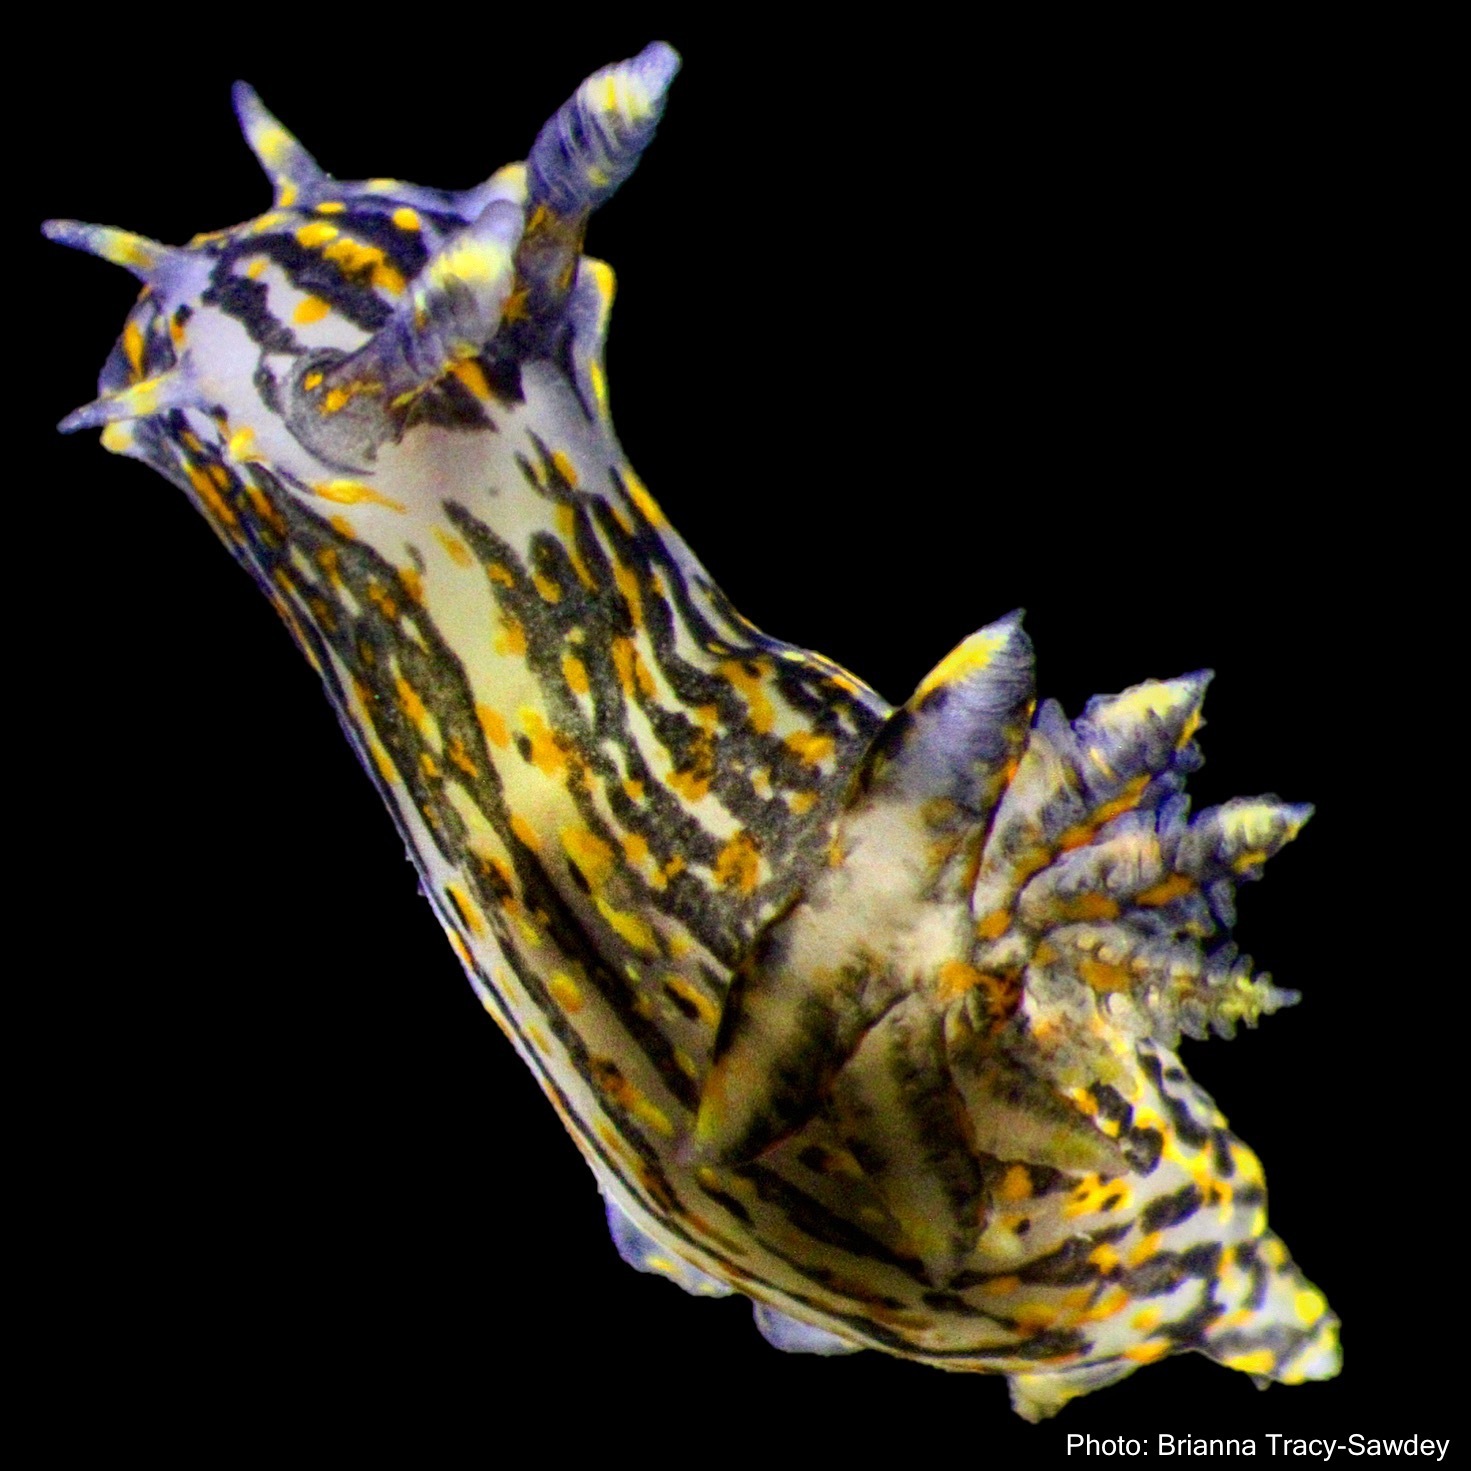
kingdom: Animalia
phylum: Mollusca
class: Gastropoda
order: Nudibranchia
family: Polyceridae
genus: Polycera
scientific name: Polycera atra
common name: Orange-spike polycera
